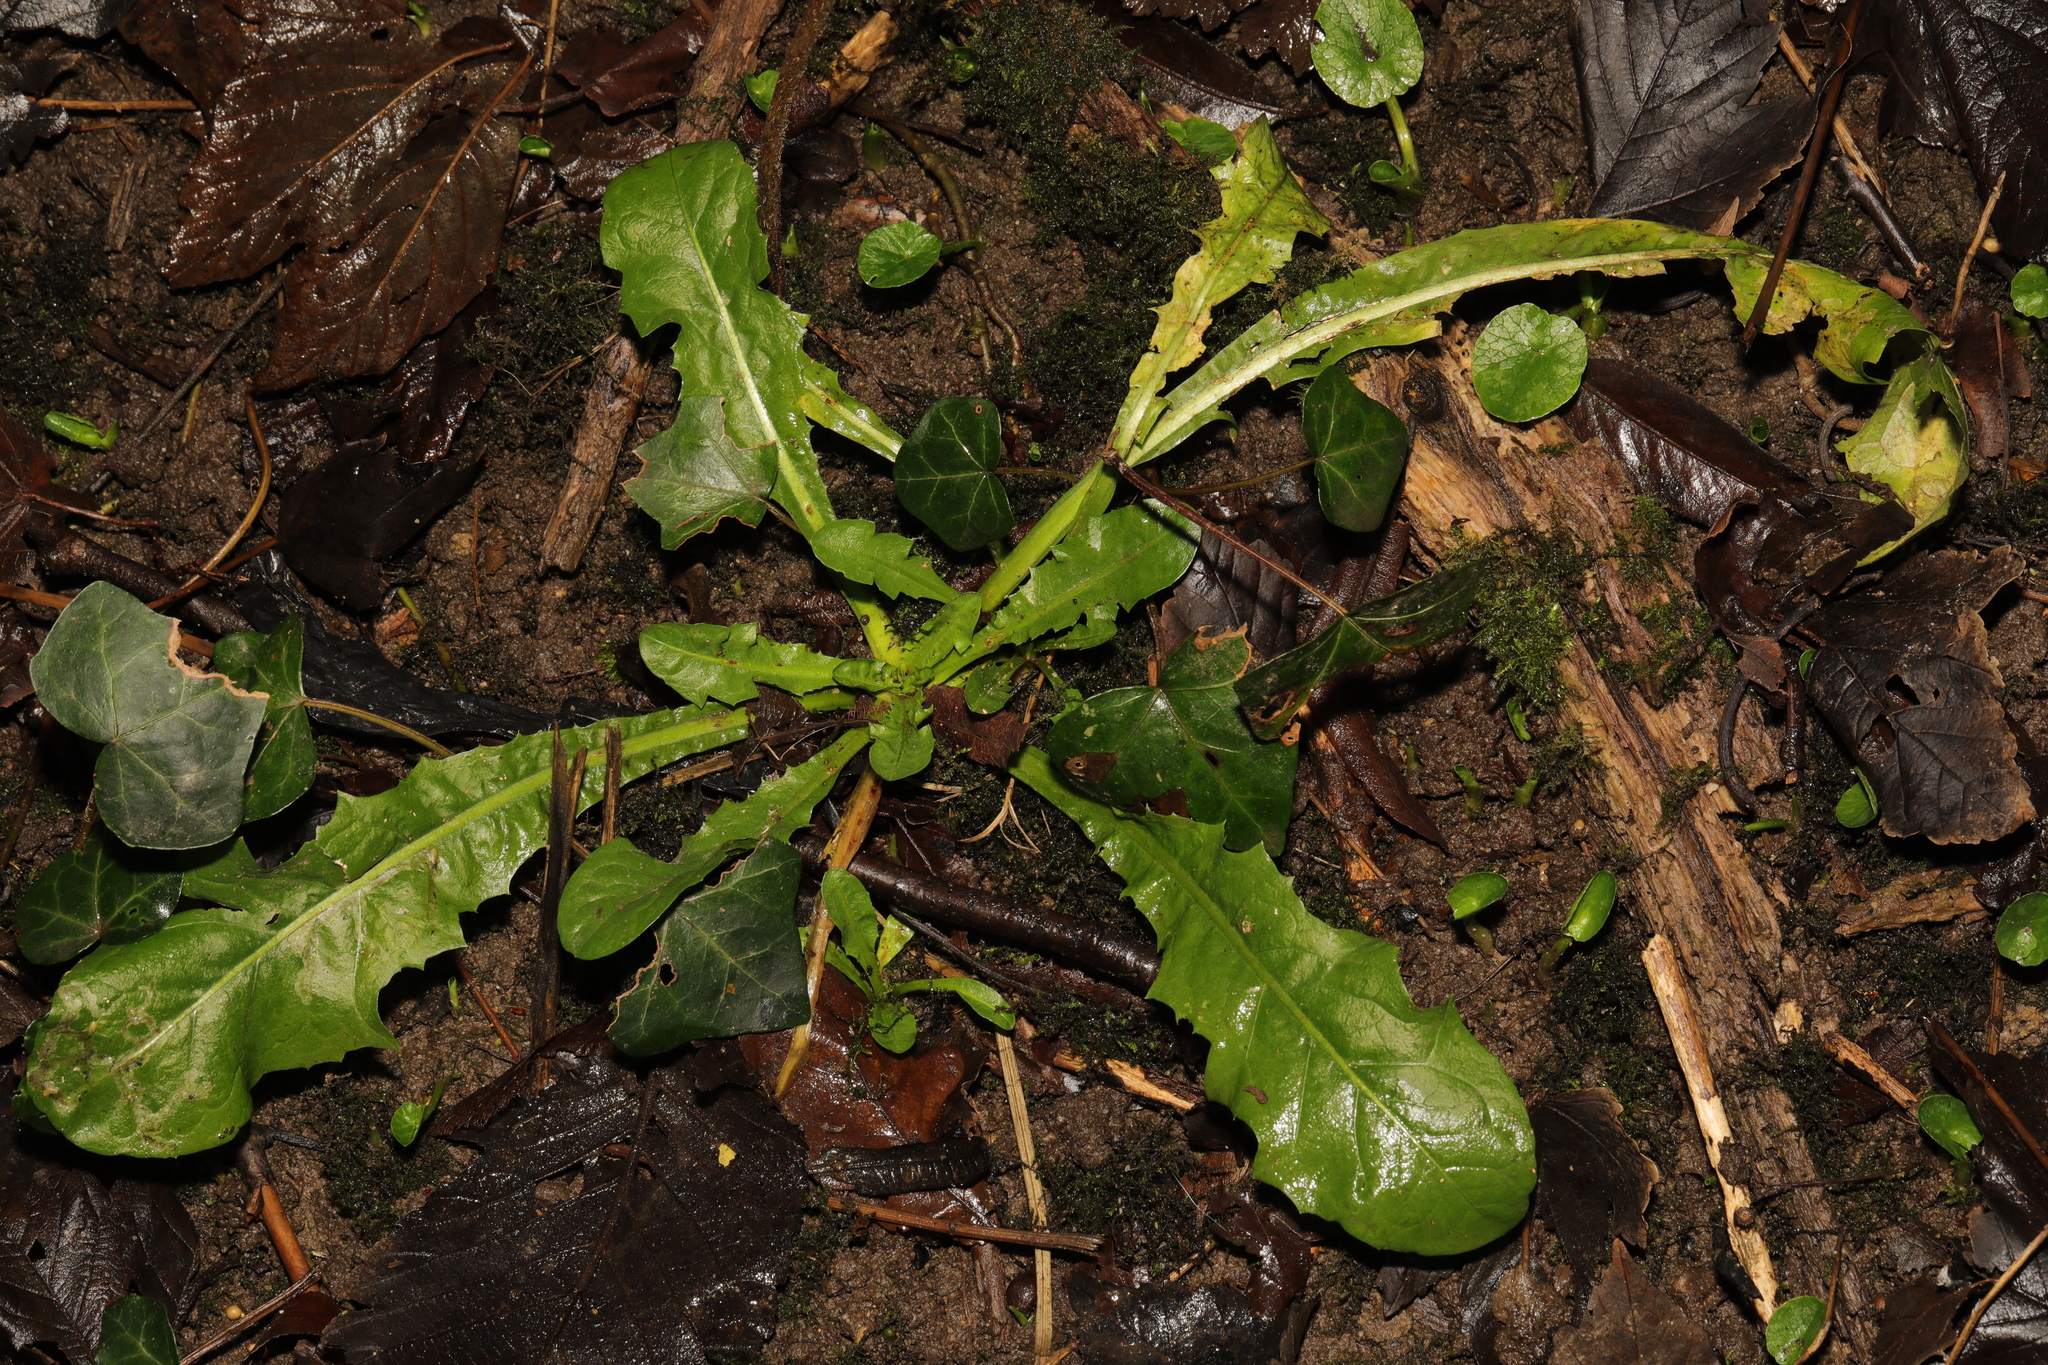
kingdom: Plantae
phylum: Tracheophyta
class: Magnoliopsida
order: Asterales
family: Asteraceae
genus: Taraxacum
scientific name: Taraxacum officinale
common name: Common dandelion
